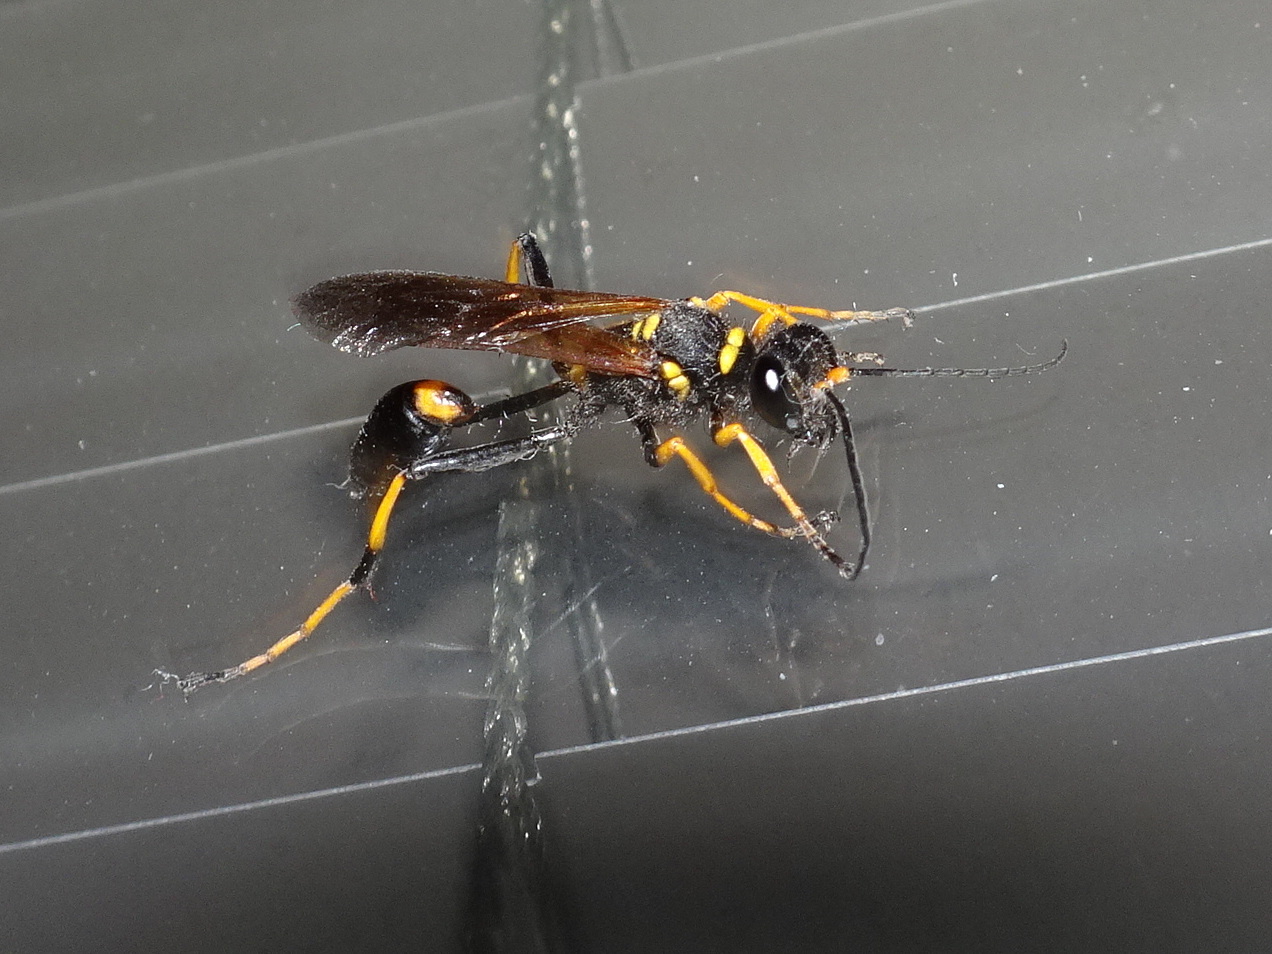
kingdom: Animalia
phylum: Arthropoda
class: Insecta
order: Hymenoptera
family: Sphecidae
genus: Sceliphron
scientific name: Sceliphron caementarium
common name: Mud dauber
